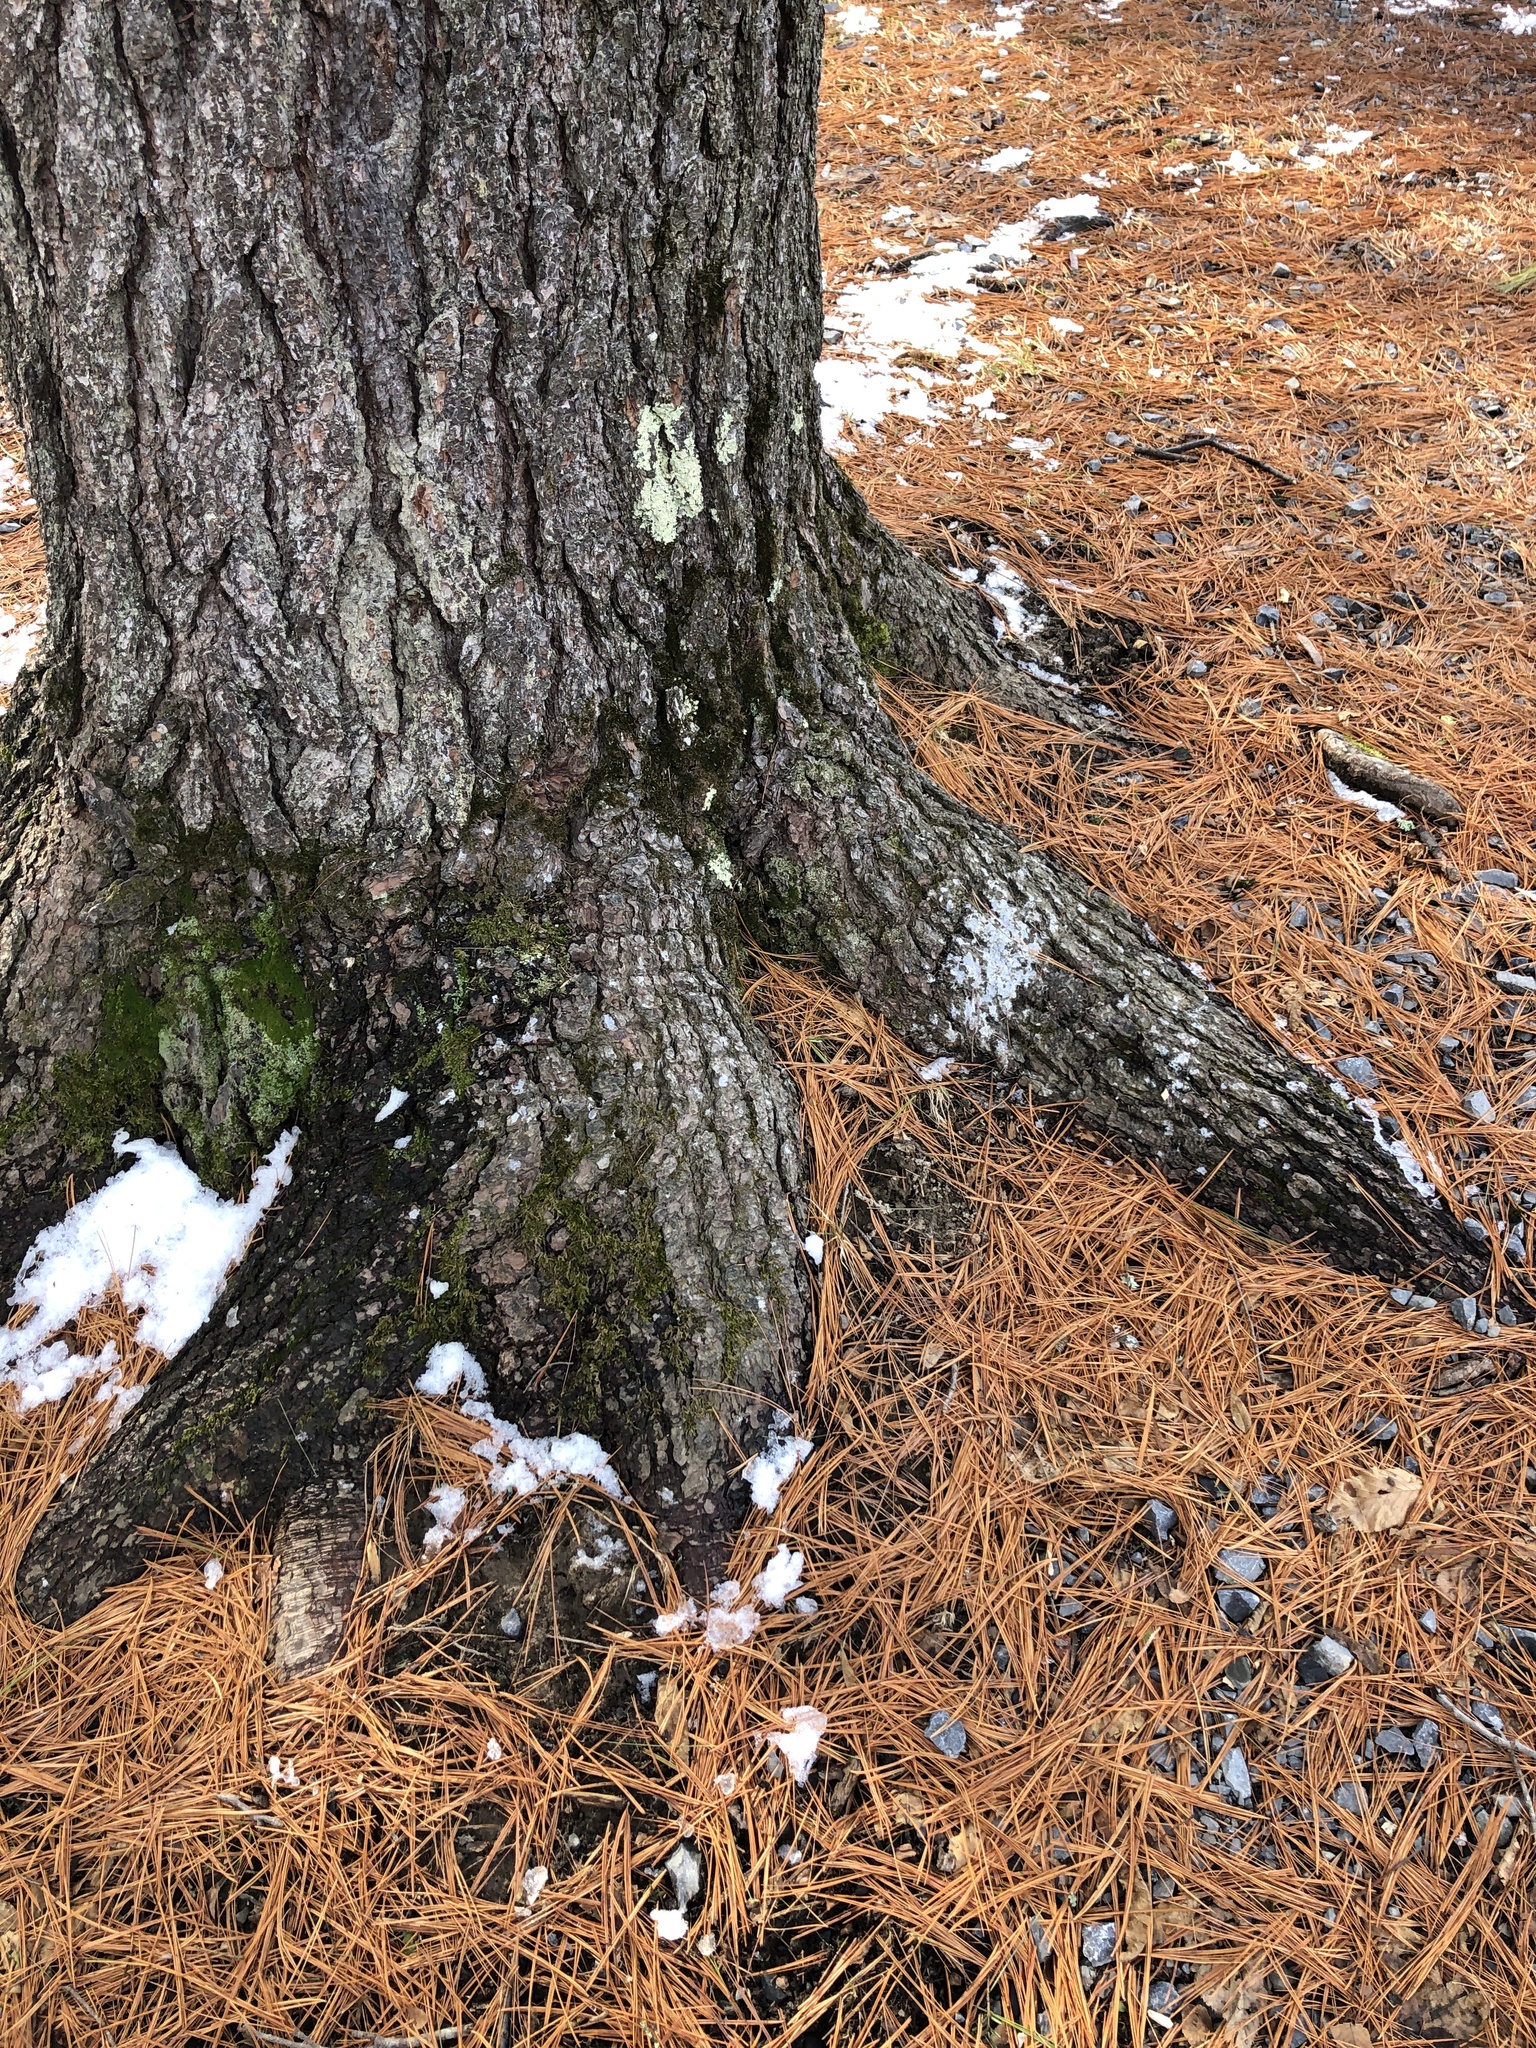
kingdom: Plantae
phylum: Tracheophyta
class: Pinopsida
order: Pinales
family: Pinaceae
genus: Pinus
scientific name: Pinus strobus
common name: Weymouth pine
